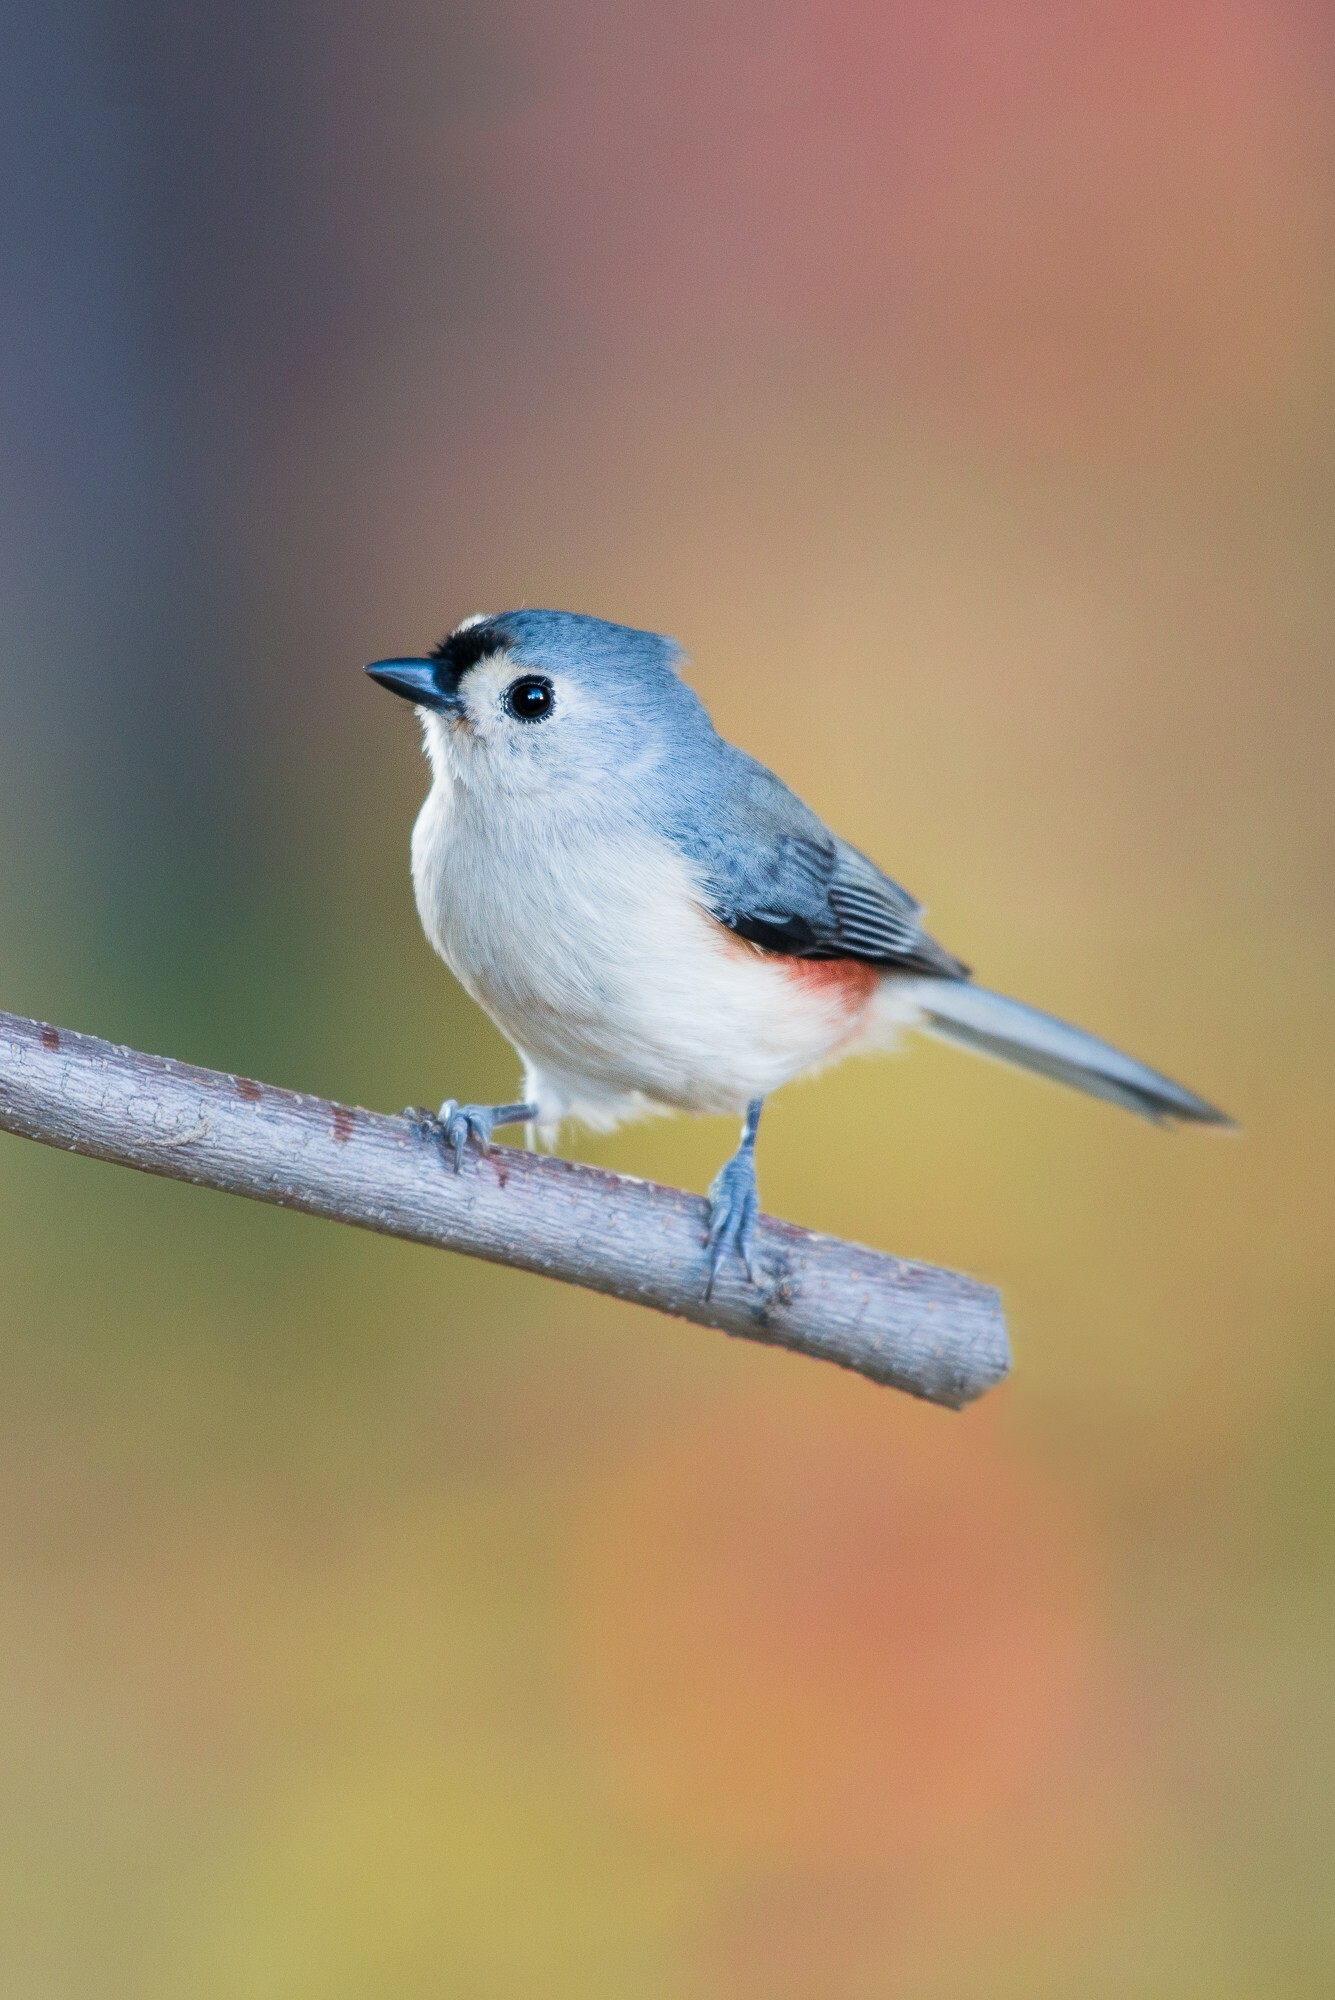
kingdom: Animalia
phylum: Chordata
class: Aves
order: Passeriformes
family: Paridae
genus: Baeolophus
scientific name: Baeolophus bicolor
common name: Tufted titmouse
